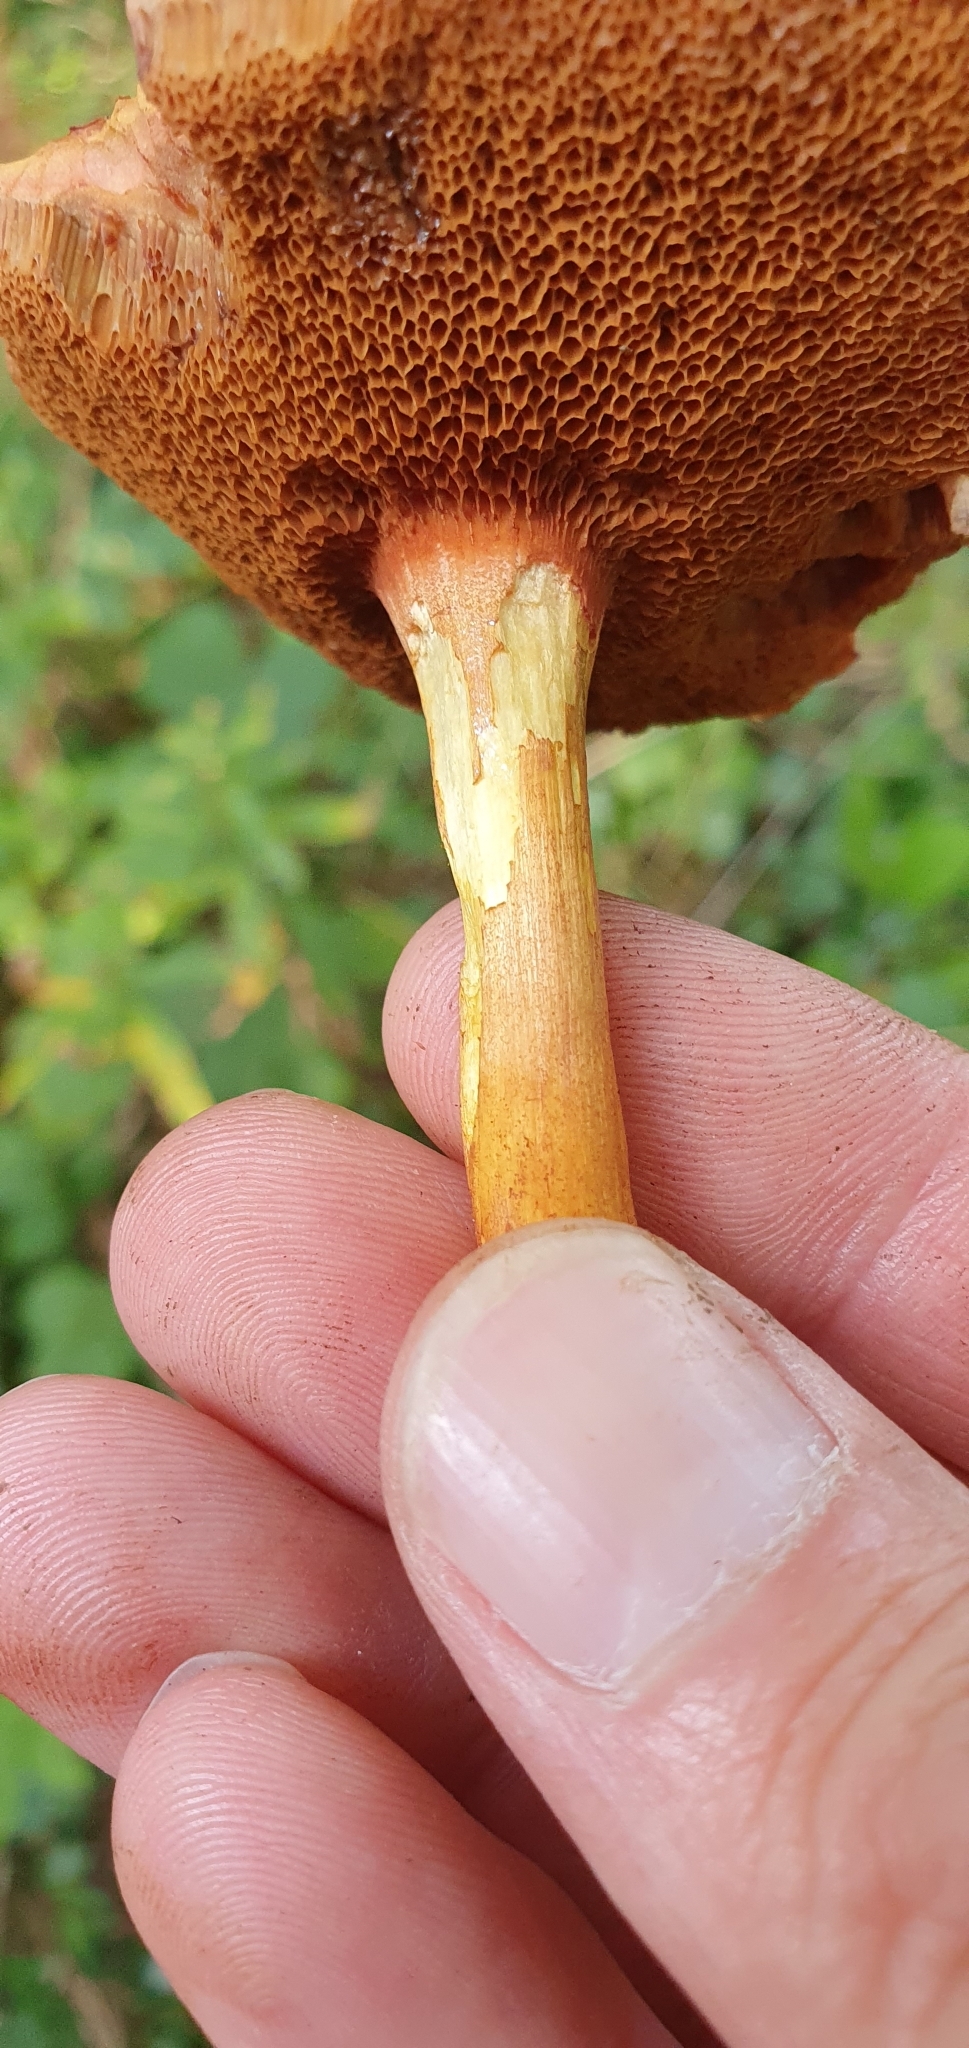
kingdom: Fungi
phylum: Basidiomycota
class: Agaricomycetes
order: Boletales
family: Boletaceae
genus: Chalciporus
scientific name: Chalciporus piperatus
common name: Peppery bolete
